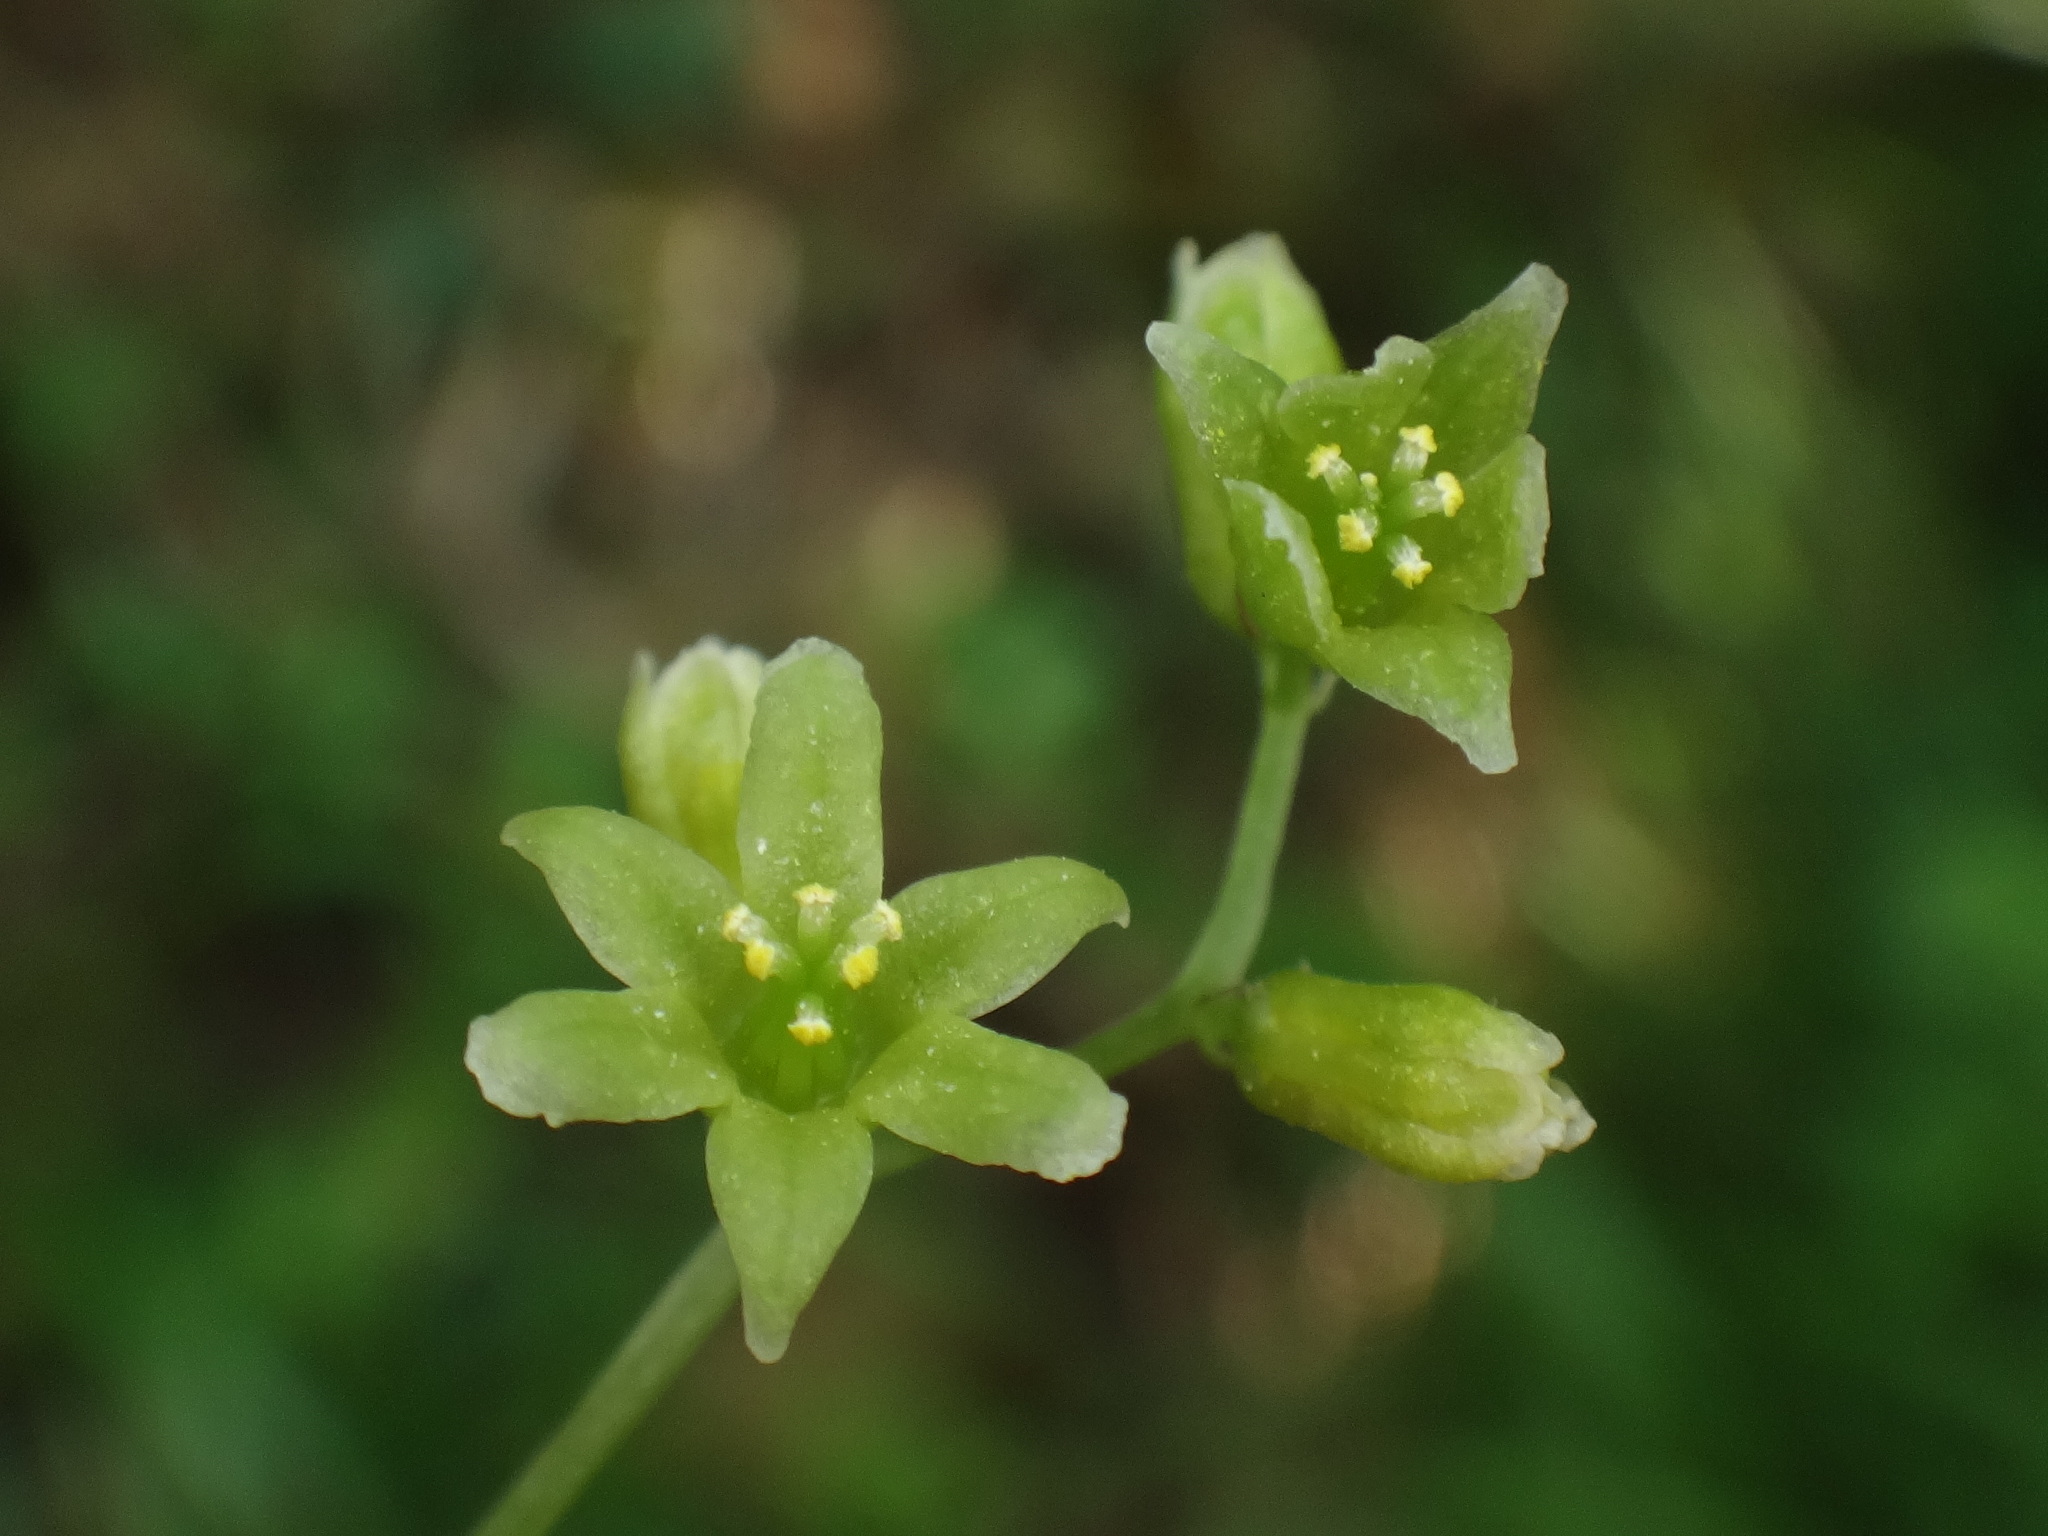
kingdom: Plantae
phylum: Tracheophyta
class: Liliopsida
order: Dioscoreales
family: Dioscoreaceae
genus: Dioscorea
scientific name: Dioscorea communis
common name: Black-bindweed
